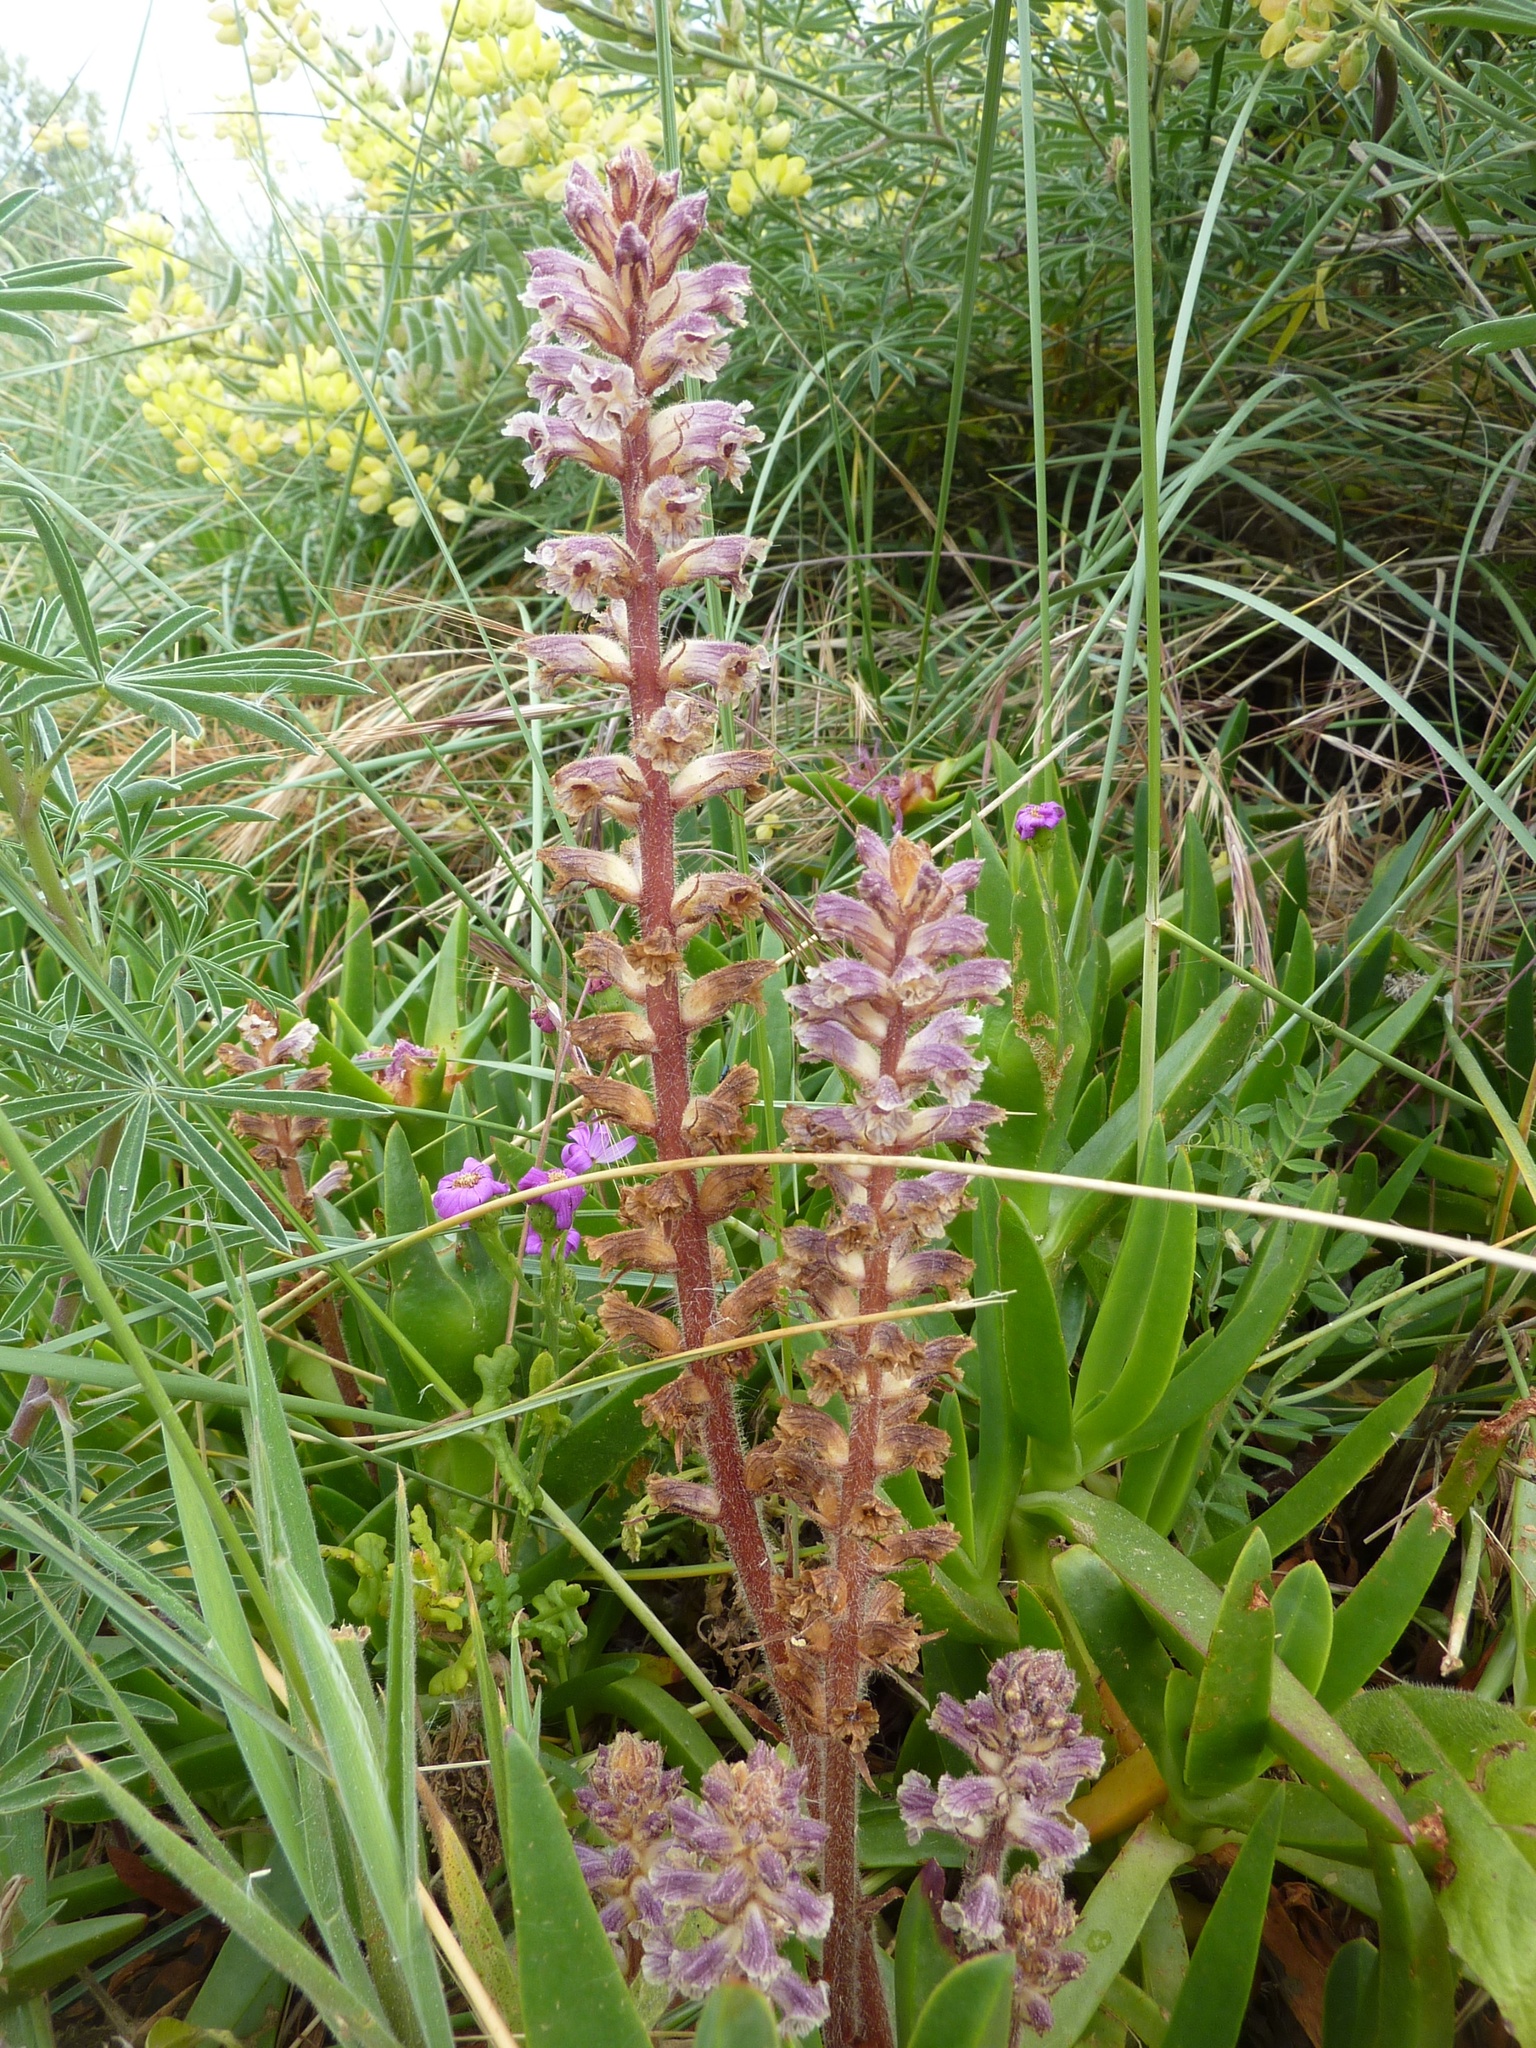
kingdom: Plantae
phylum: Tracheophyta
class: Magnoliopsida
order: Lamiales
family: Orobanchaceae
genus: Orobanche
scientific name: Orobanche minor
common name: Common broomrape
